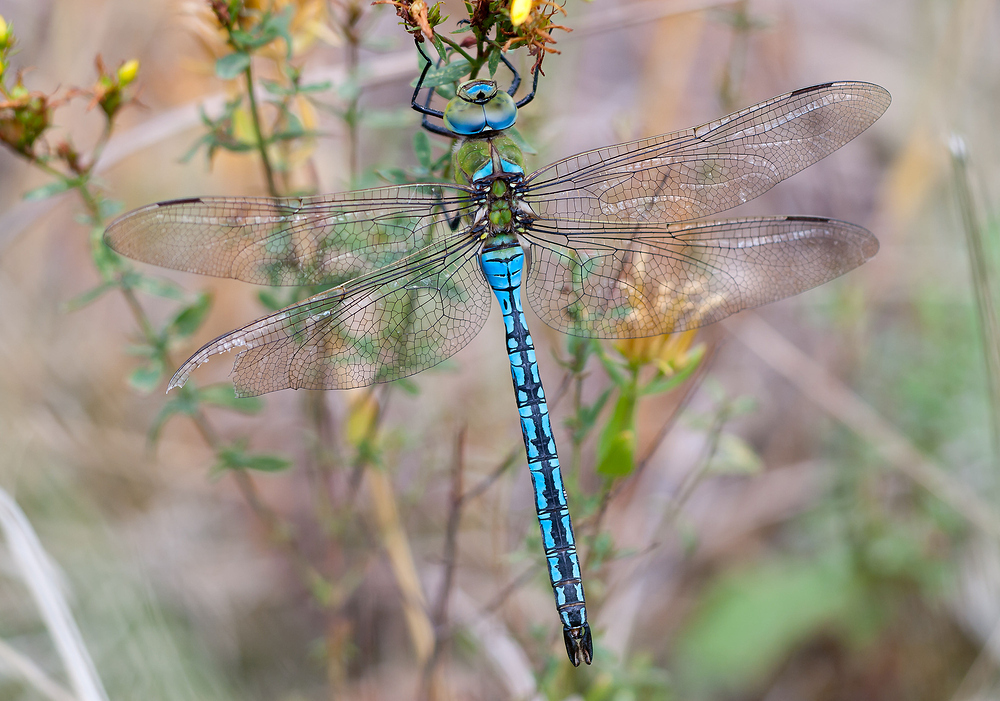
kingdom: Animalia
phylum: Arthropoda
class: Insecta
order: Odonata
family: Aeshnidae
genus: Anax
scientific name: Anax imperator
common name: Emperor dragonfly
